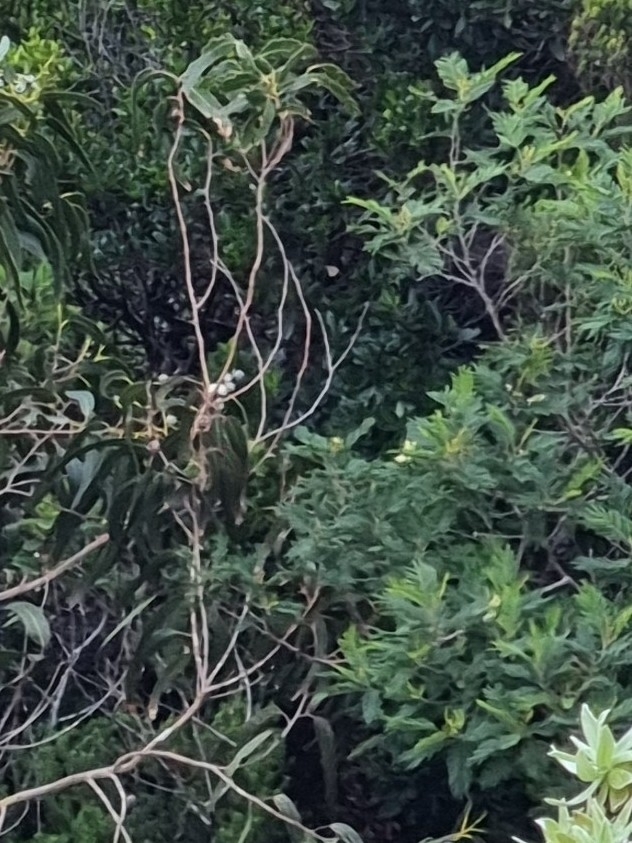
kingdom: Plantae
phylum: Tracheophyta
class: Magnoliopsida
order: Fabales
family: Fabaceae
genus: Acacia
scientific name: Acacia mearnsii
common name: Black wattle
